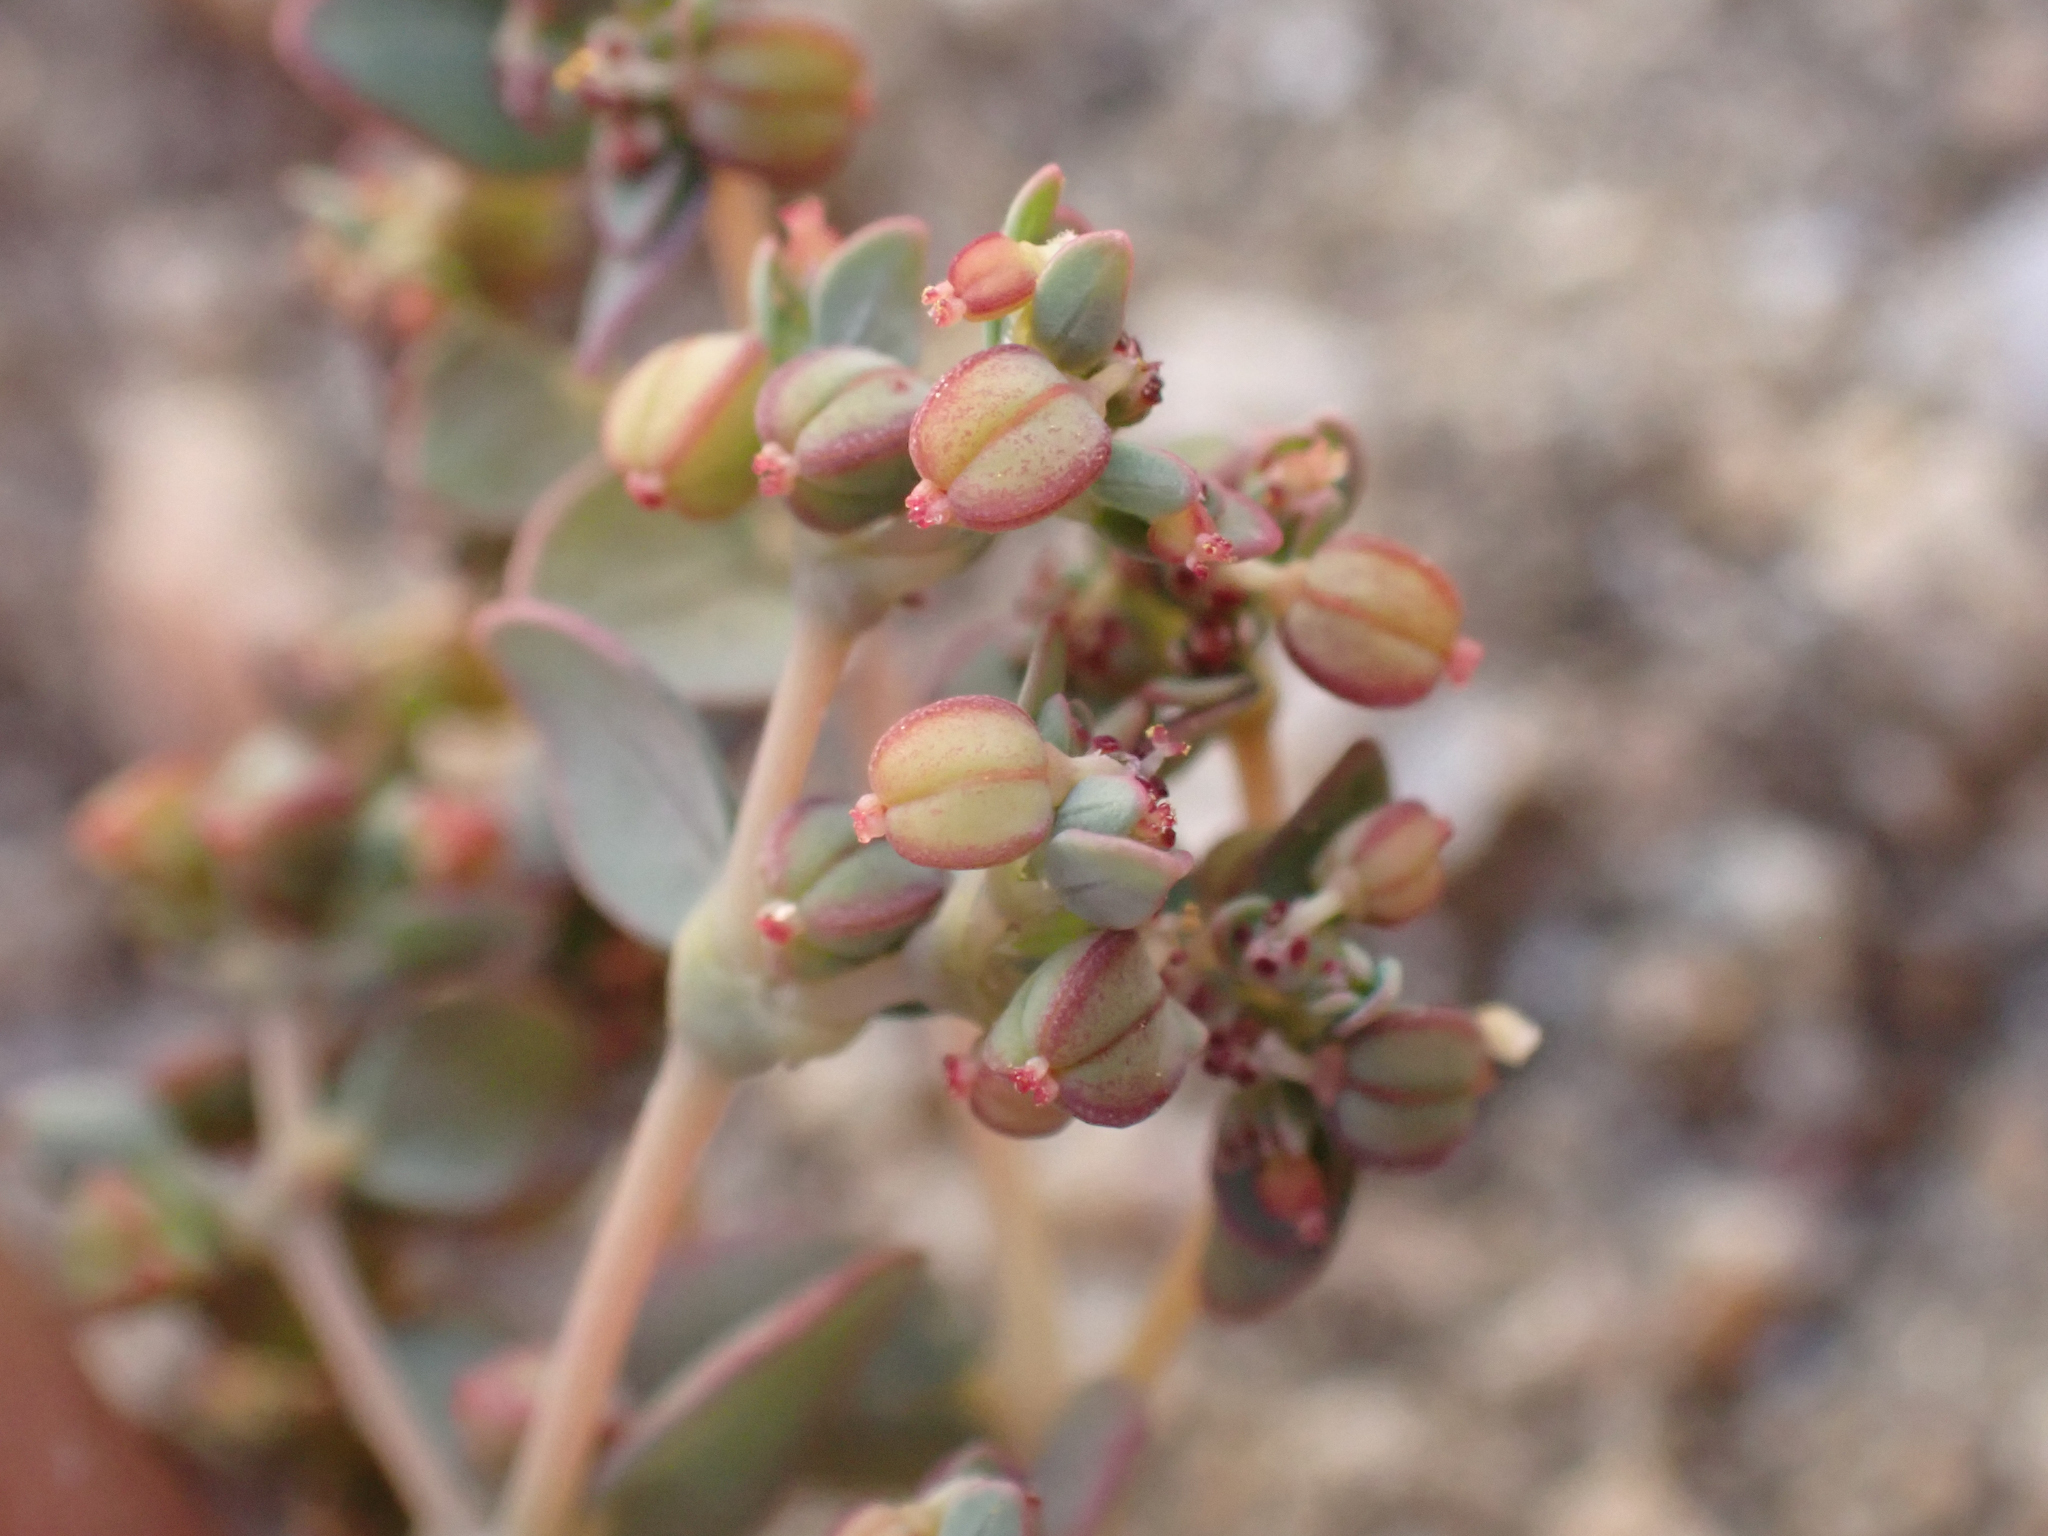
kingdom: Plantae
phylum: Tracheophyta
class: Magnoliopsida
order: Malpighiales
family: Euphorbiaceae
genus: Euphorbia
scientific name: Euphorbia micromera
